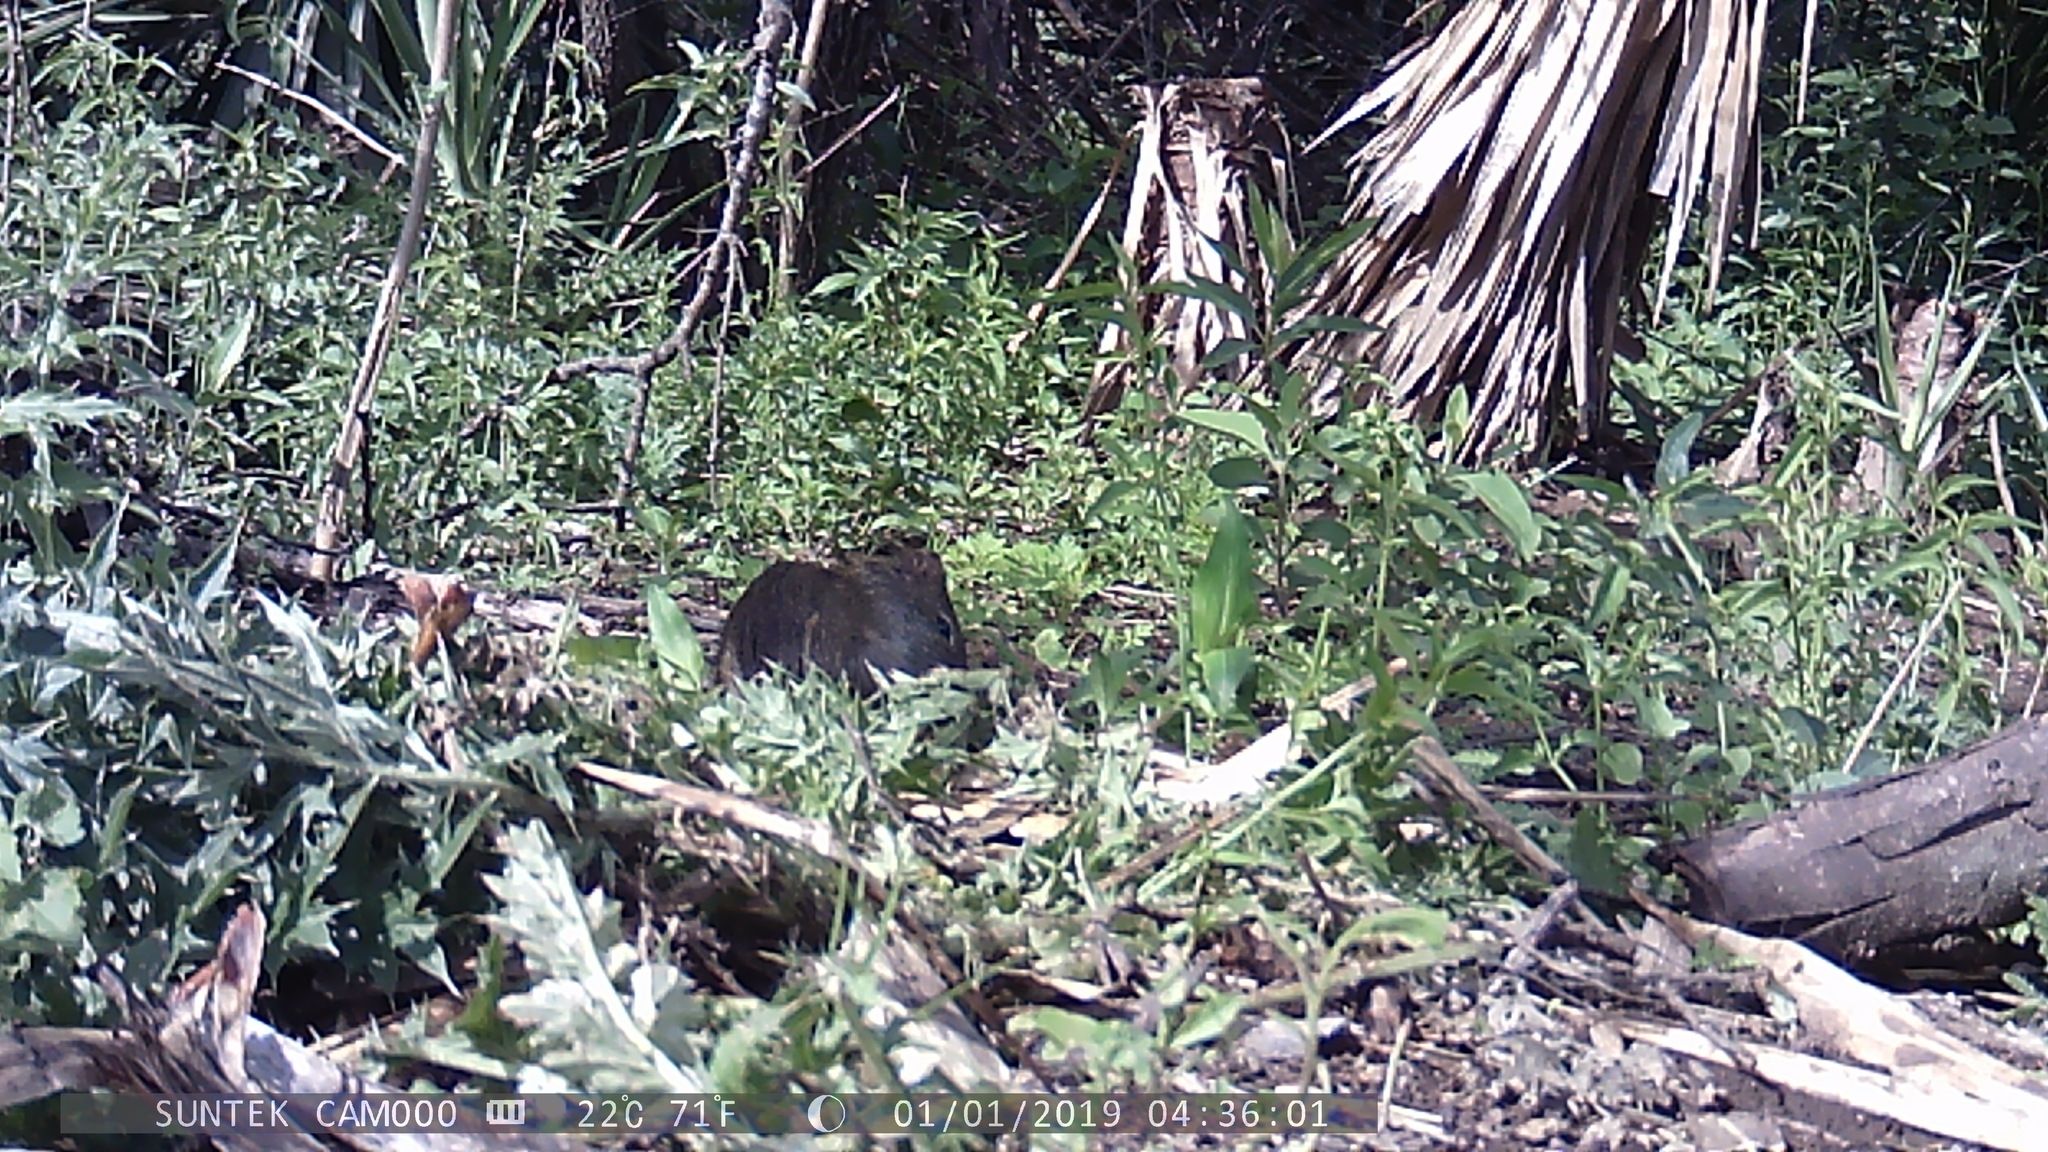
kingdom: Animalia
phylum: Chordata
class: Mammalia
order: Rodentia
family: Caviidae
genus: Cavia
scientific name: Cavia aperea
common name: Brazilian guinea pig
